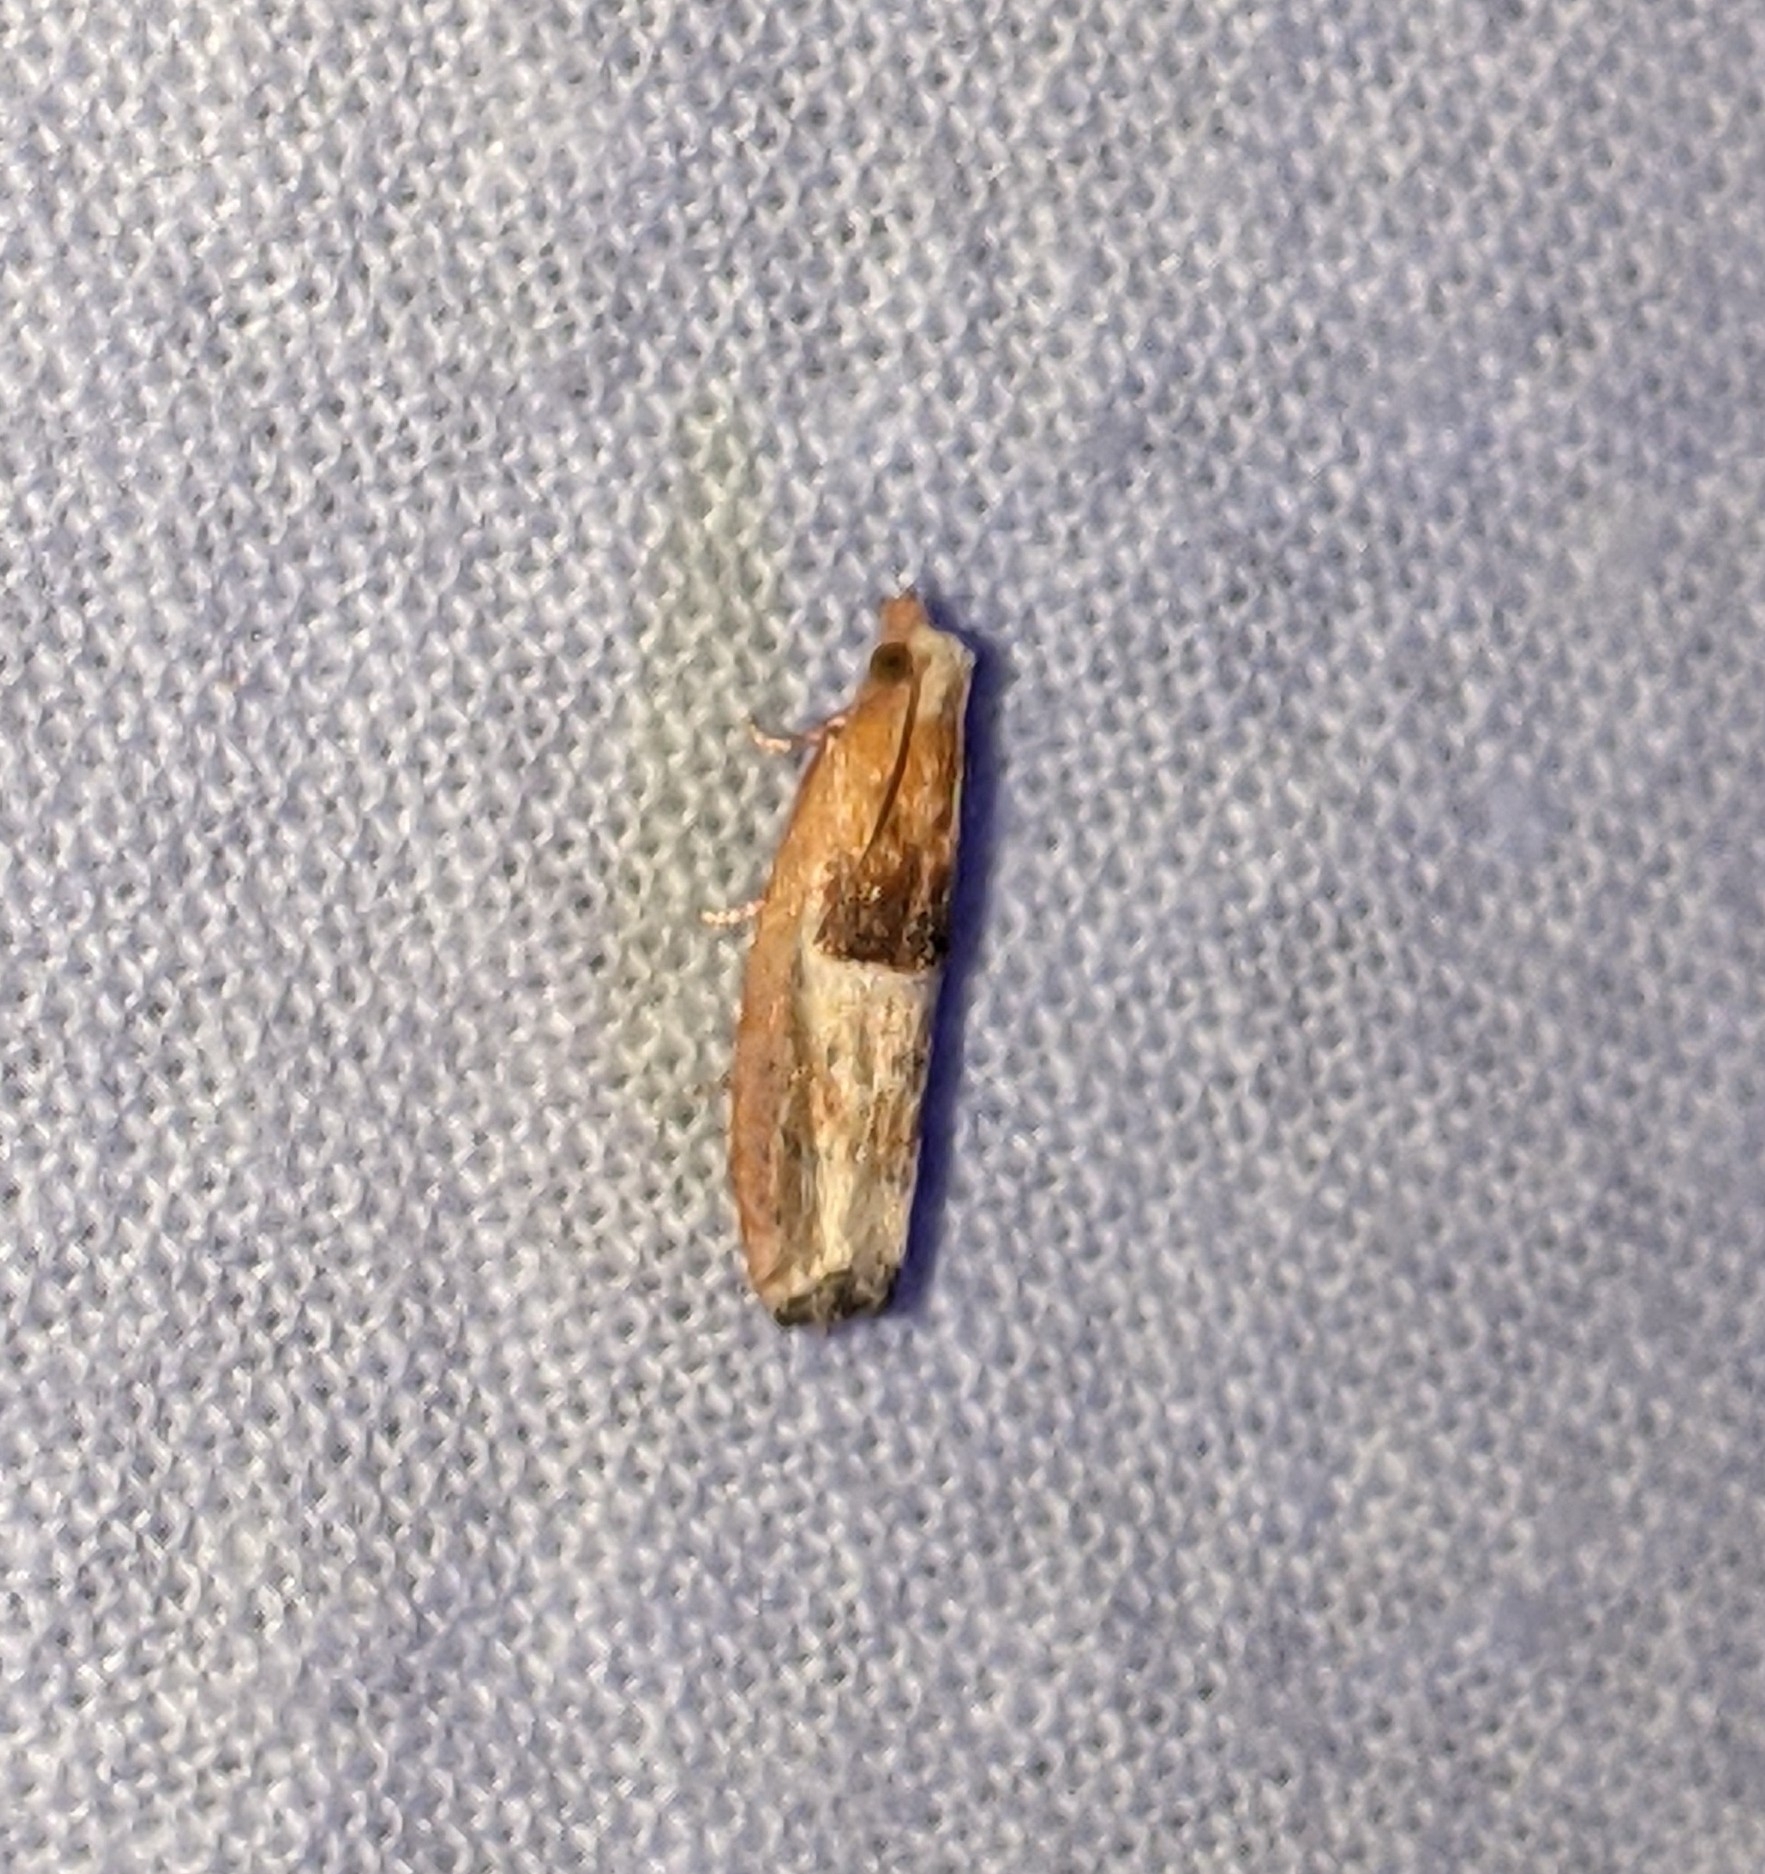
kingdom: Animalia
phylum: Arthropoda
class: Insecta
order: Lepidoptera
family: Tortricidae
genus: Epinotia
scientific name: Epinotia johnsonana
